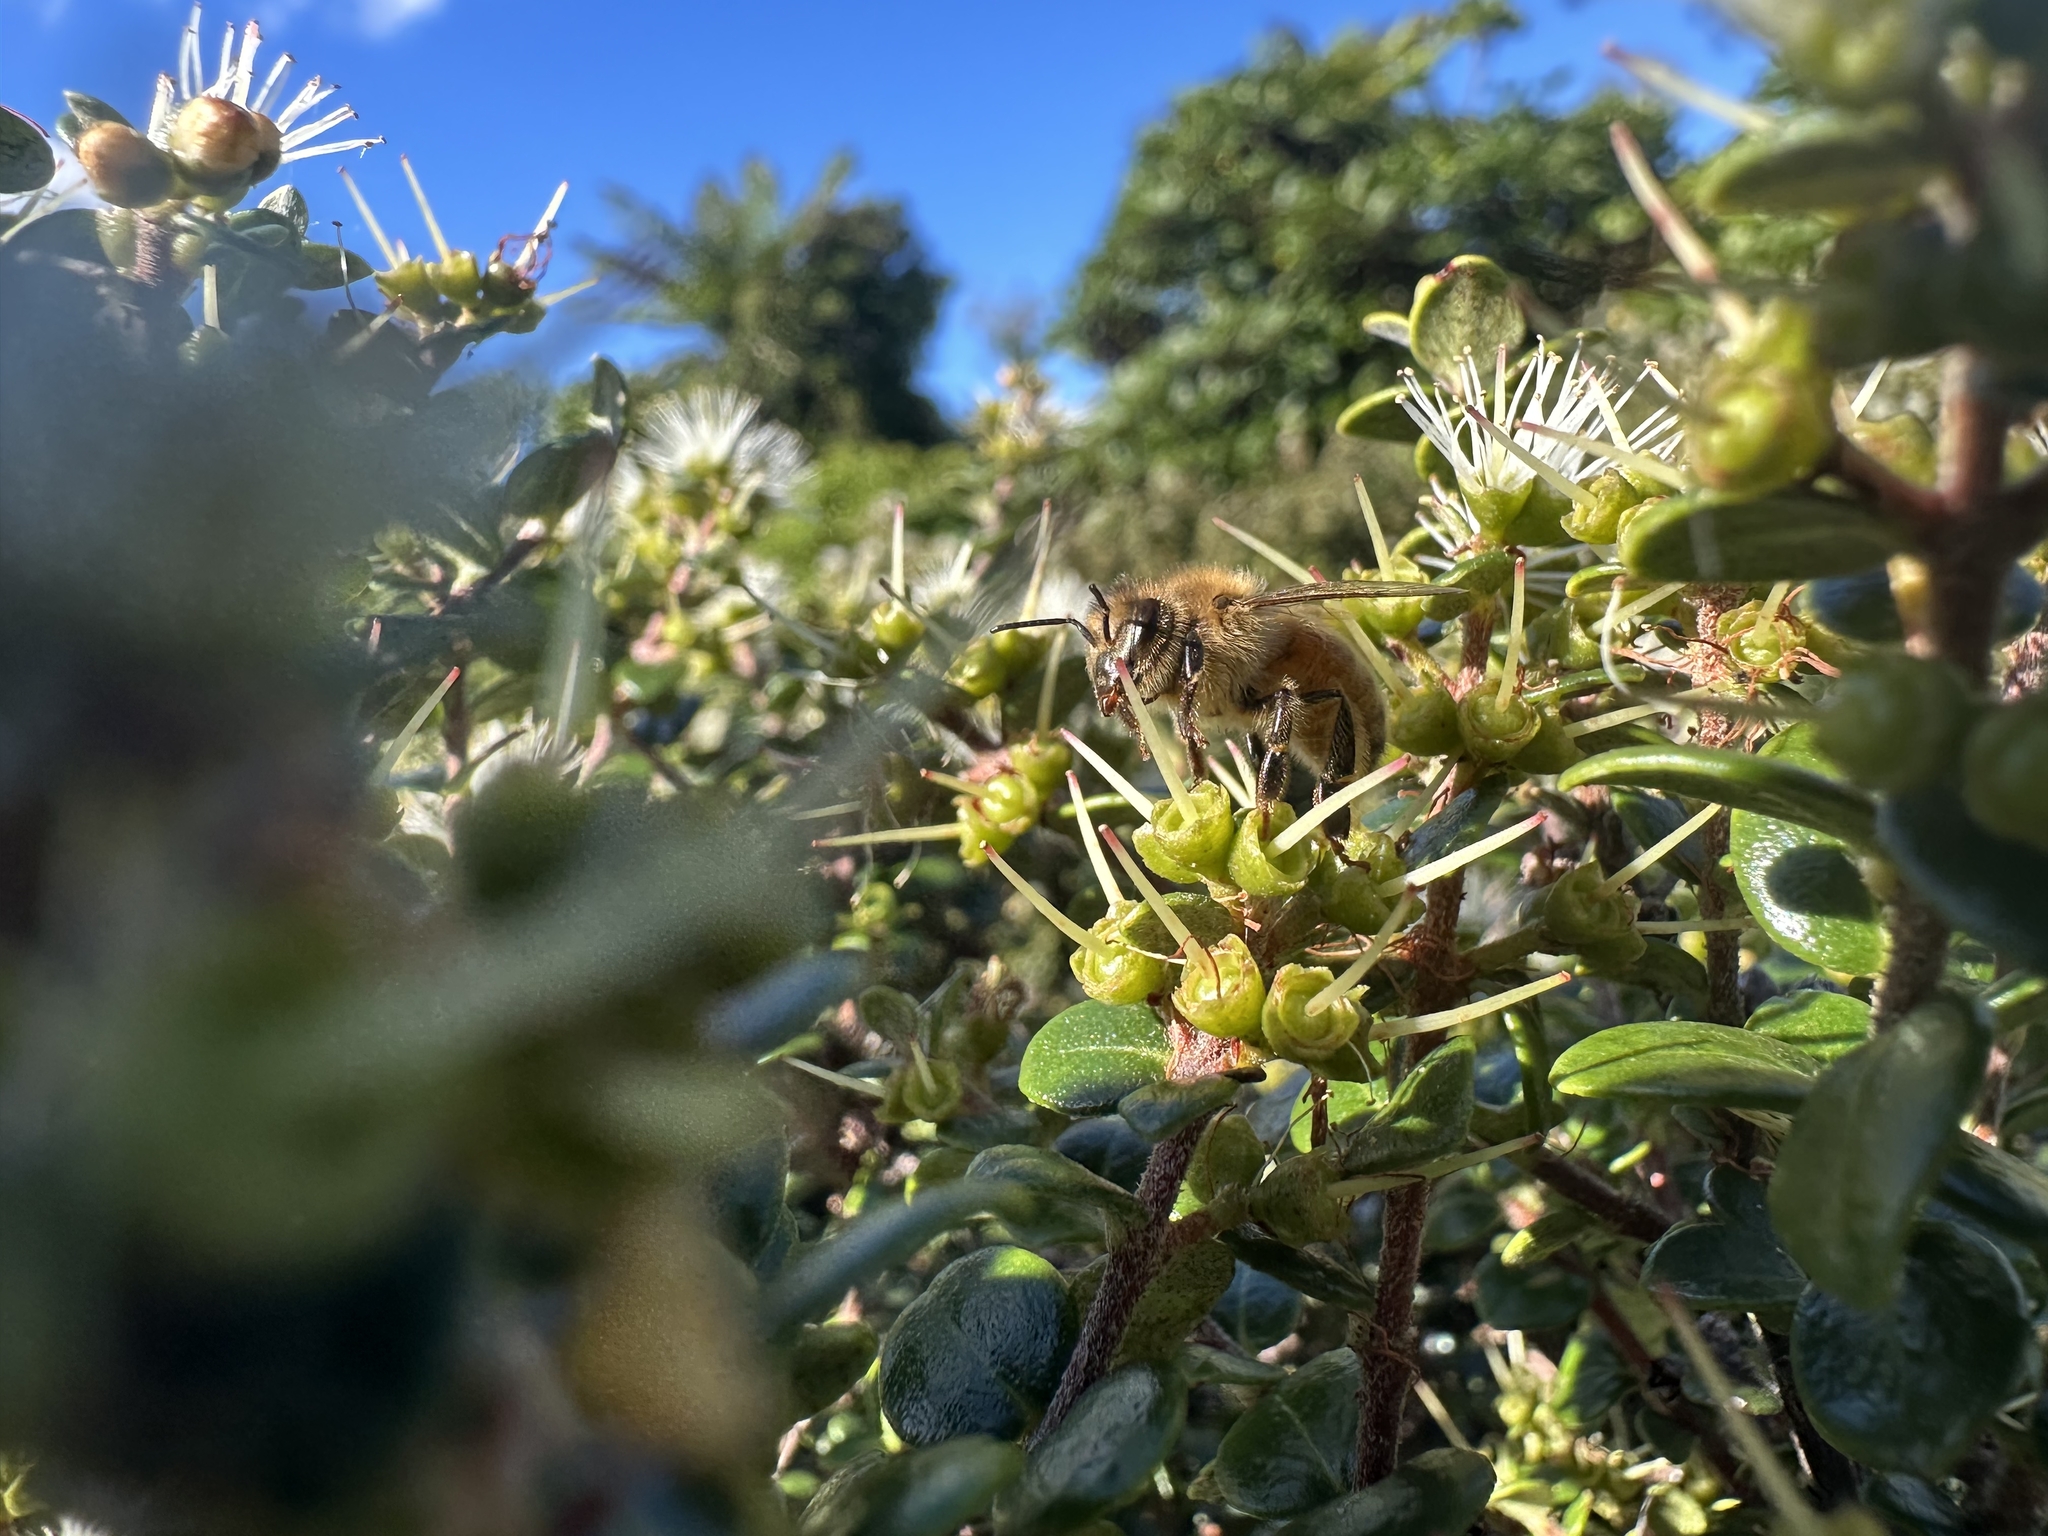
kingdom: Animalia
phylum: Arthropoda
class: Insecta
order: Hymenoptera
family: Apidae
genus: Apis
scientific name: Apis mellifera
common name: Honey bee
